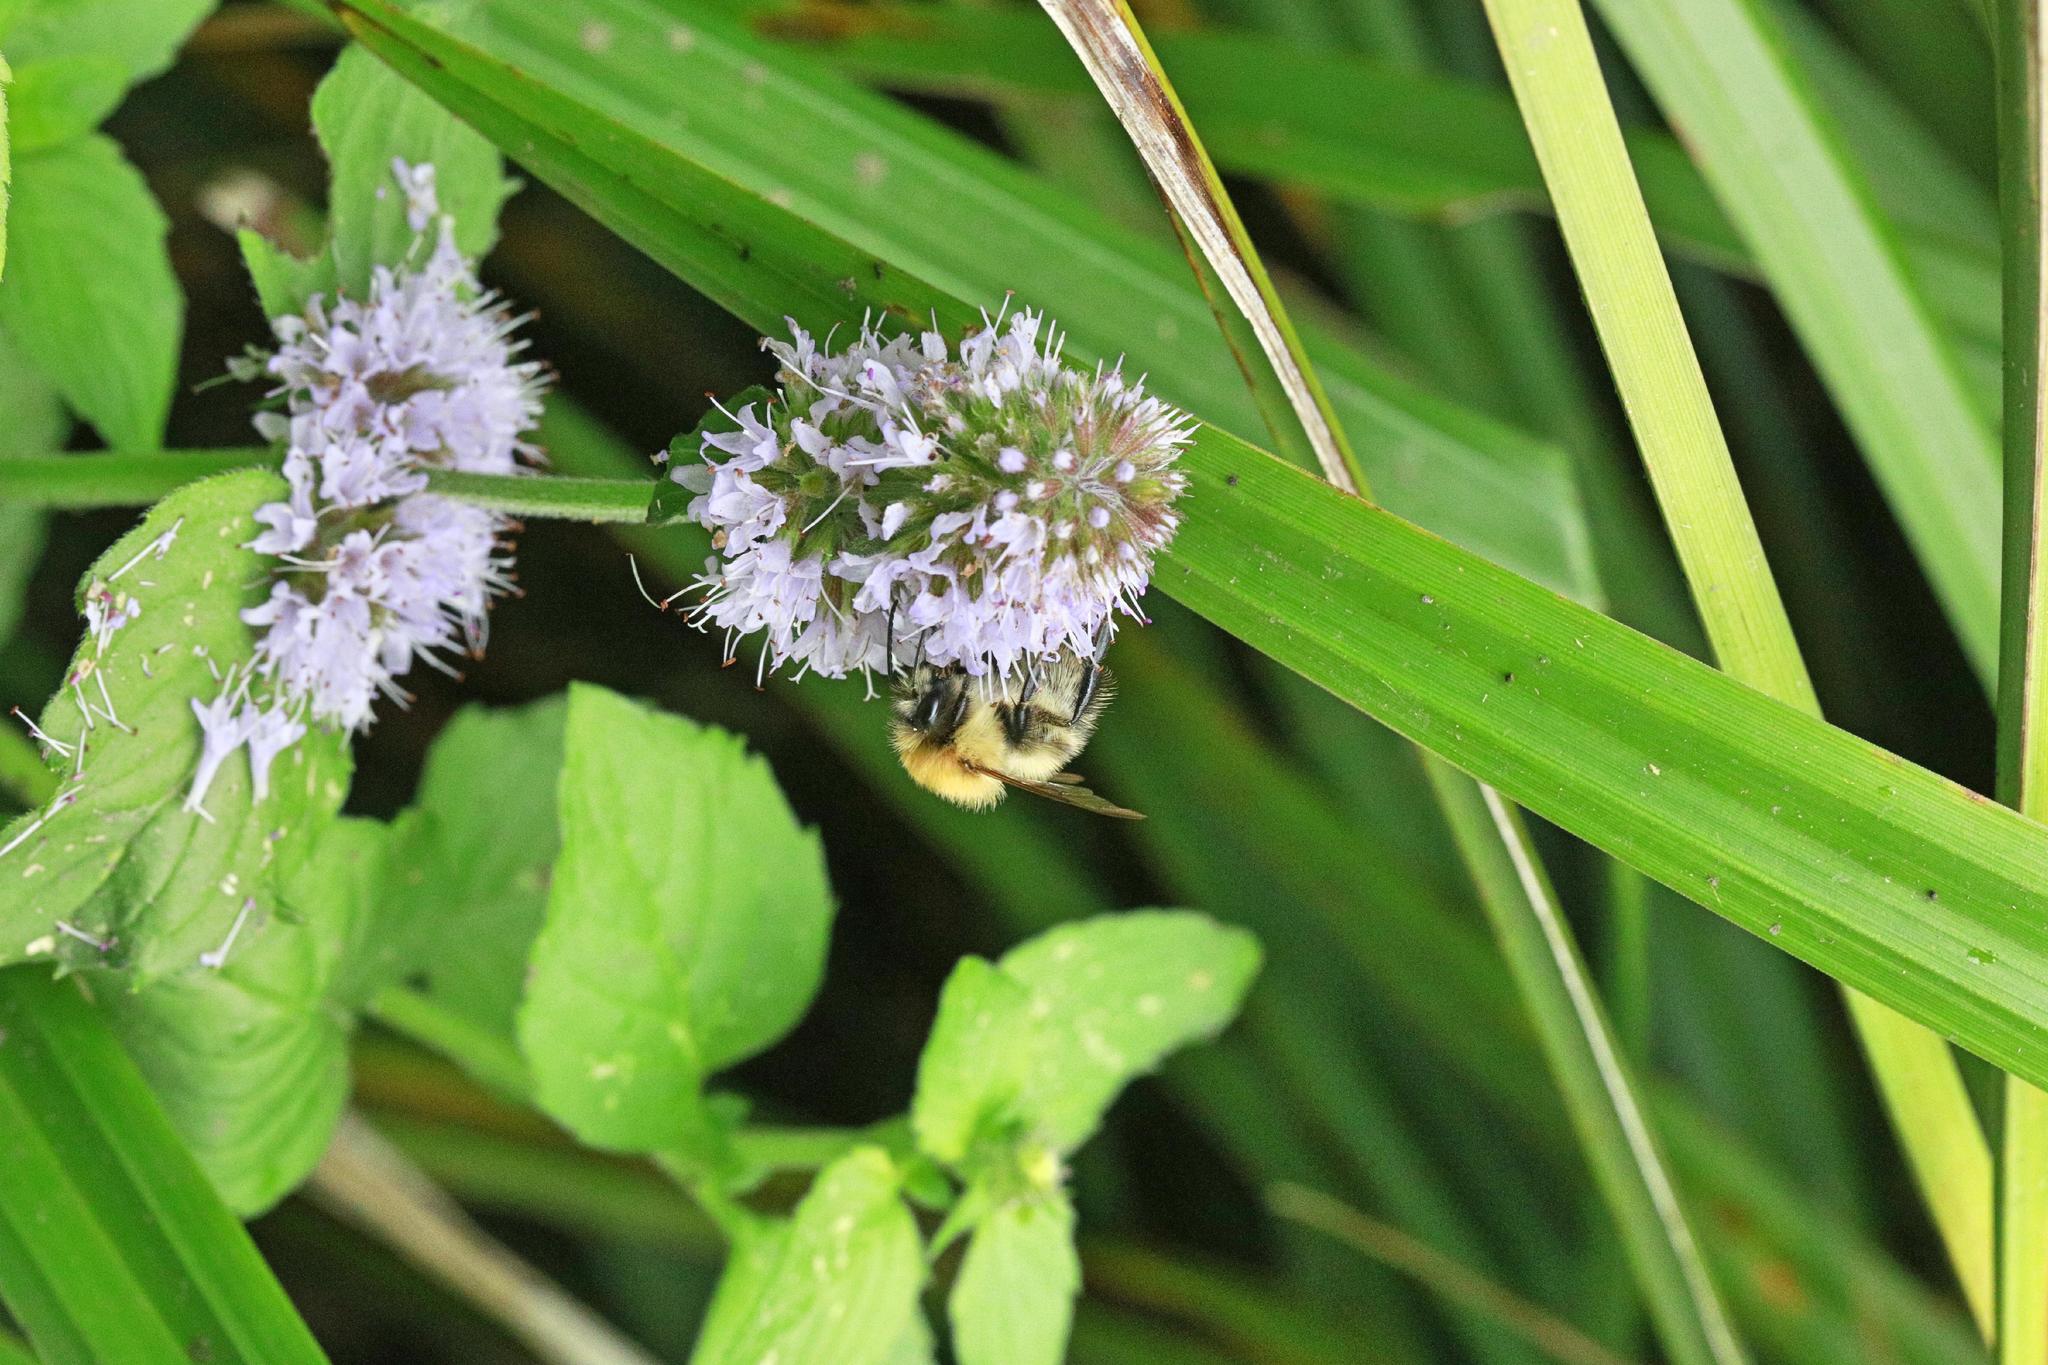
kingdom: Animalia
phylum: Arthropoda
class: Insecta
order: Hymenoptera
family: Apidae
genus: Bombus
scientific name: Bombus pascuorum
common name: Common carder bee
